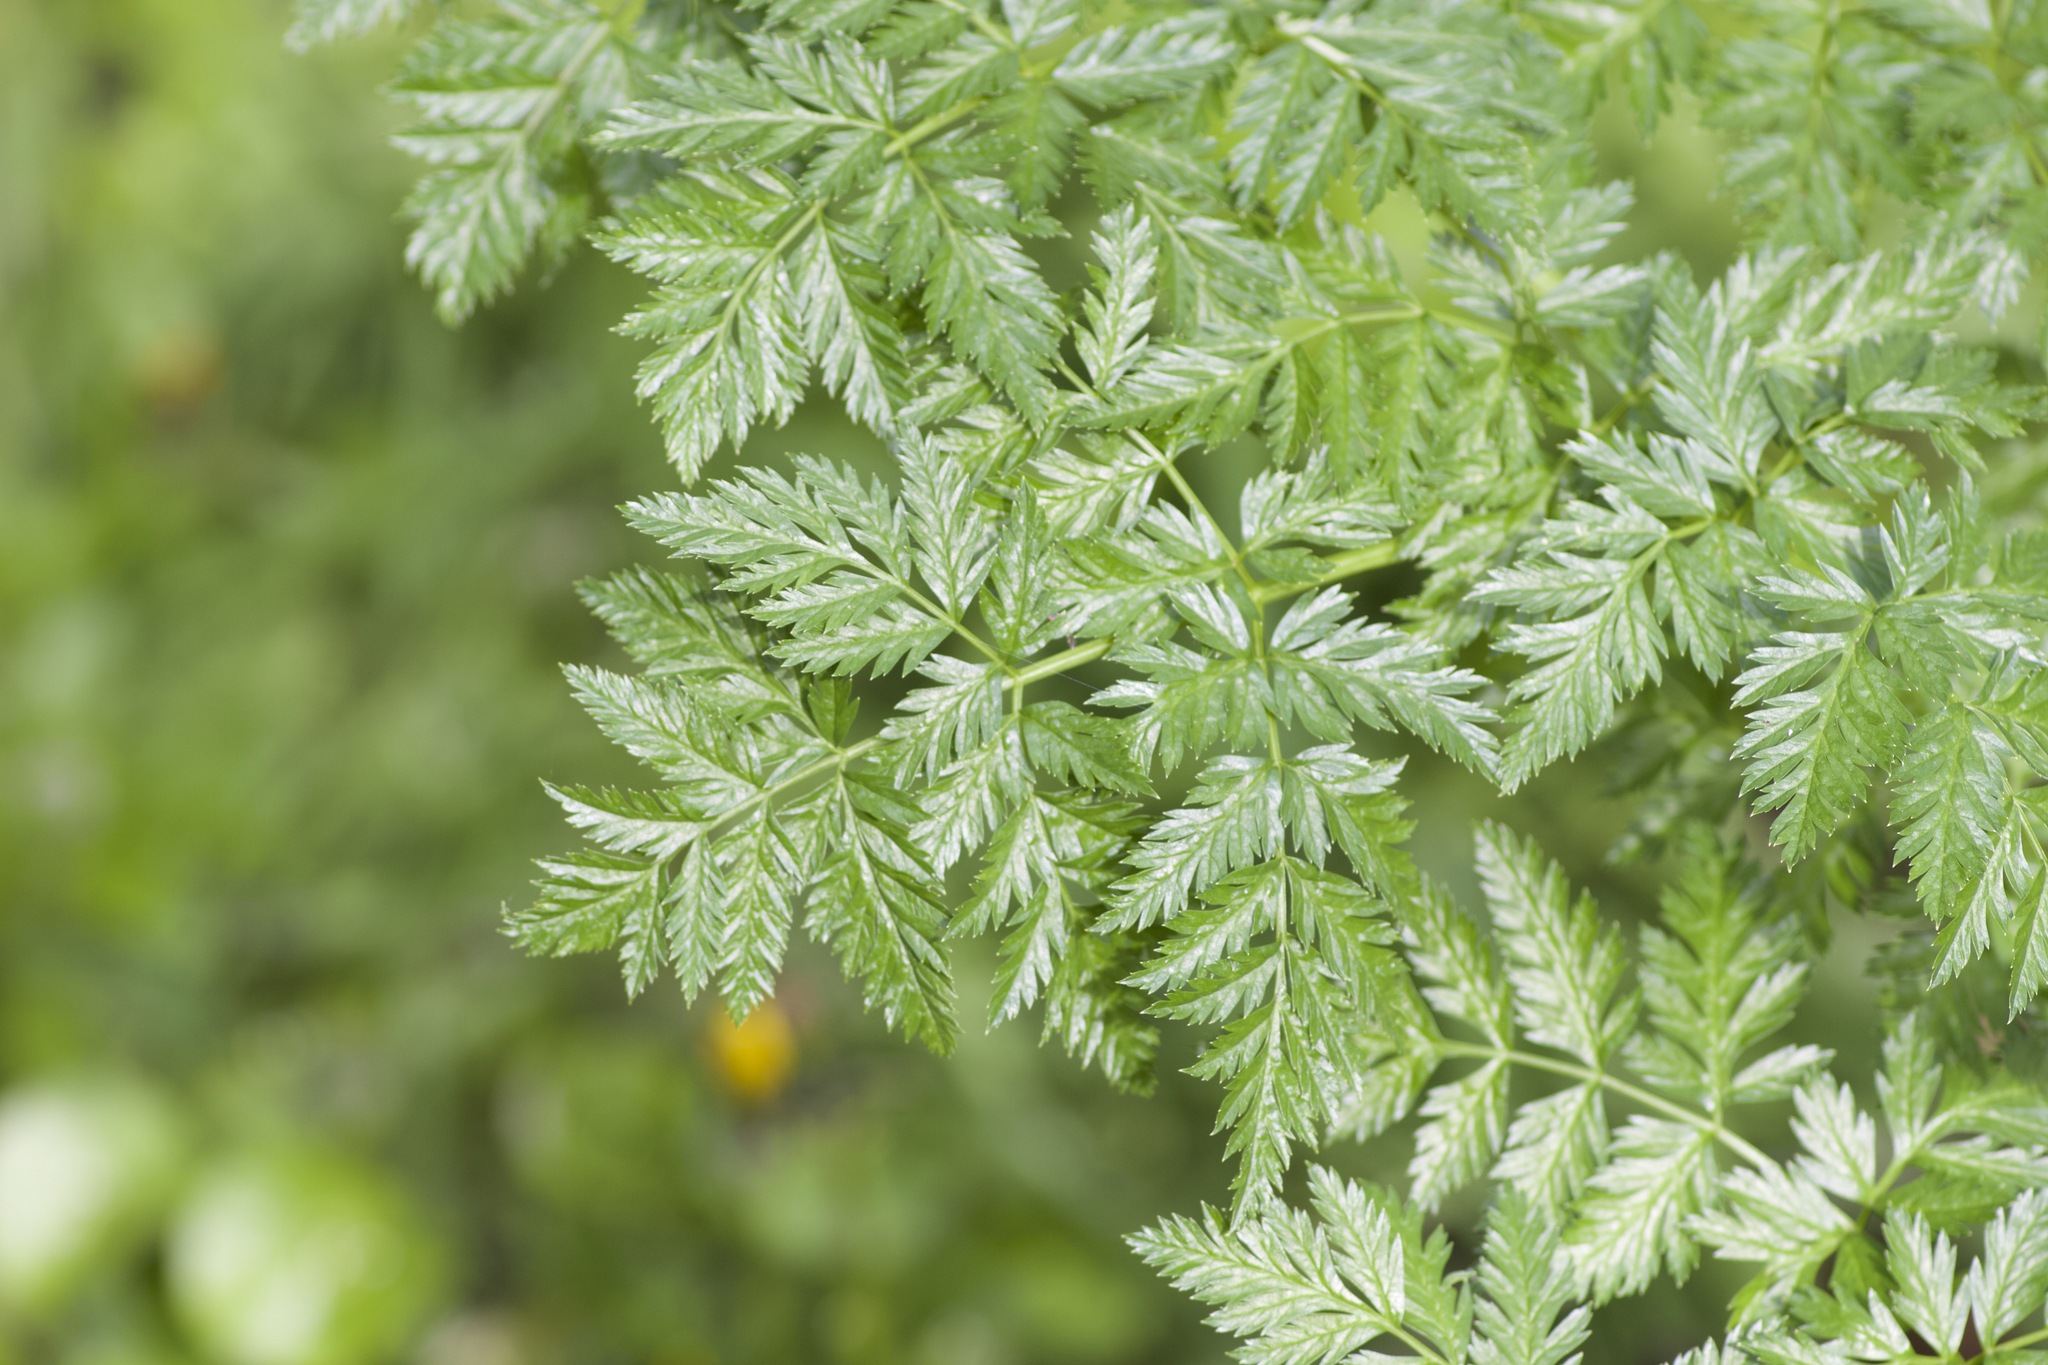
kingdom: Plantae
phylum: Tracheophyta
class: Magnoliopsida
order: Apiales
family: Apiaceae
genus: Conium
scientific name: Conium maculatum
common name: Hemlock
